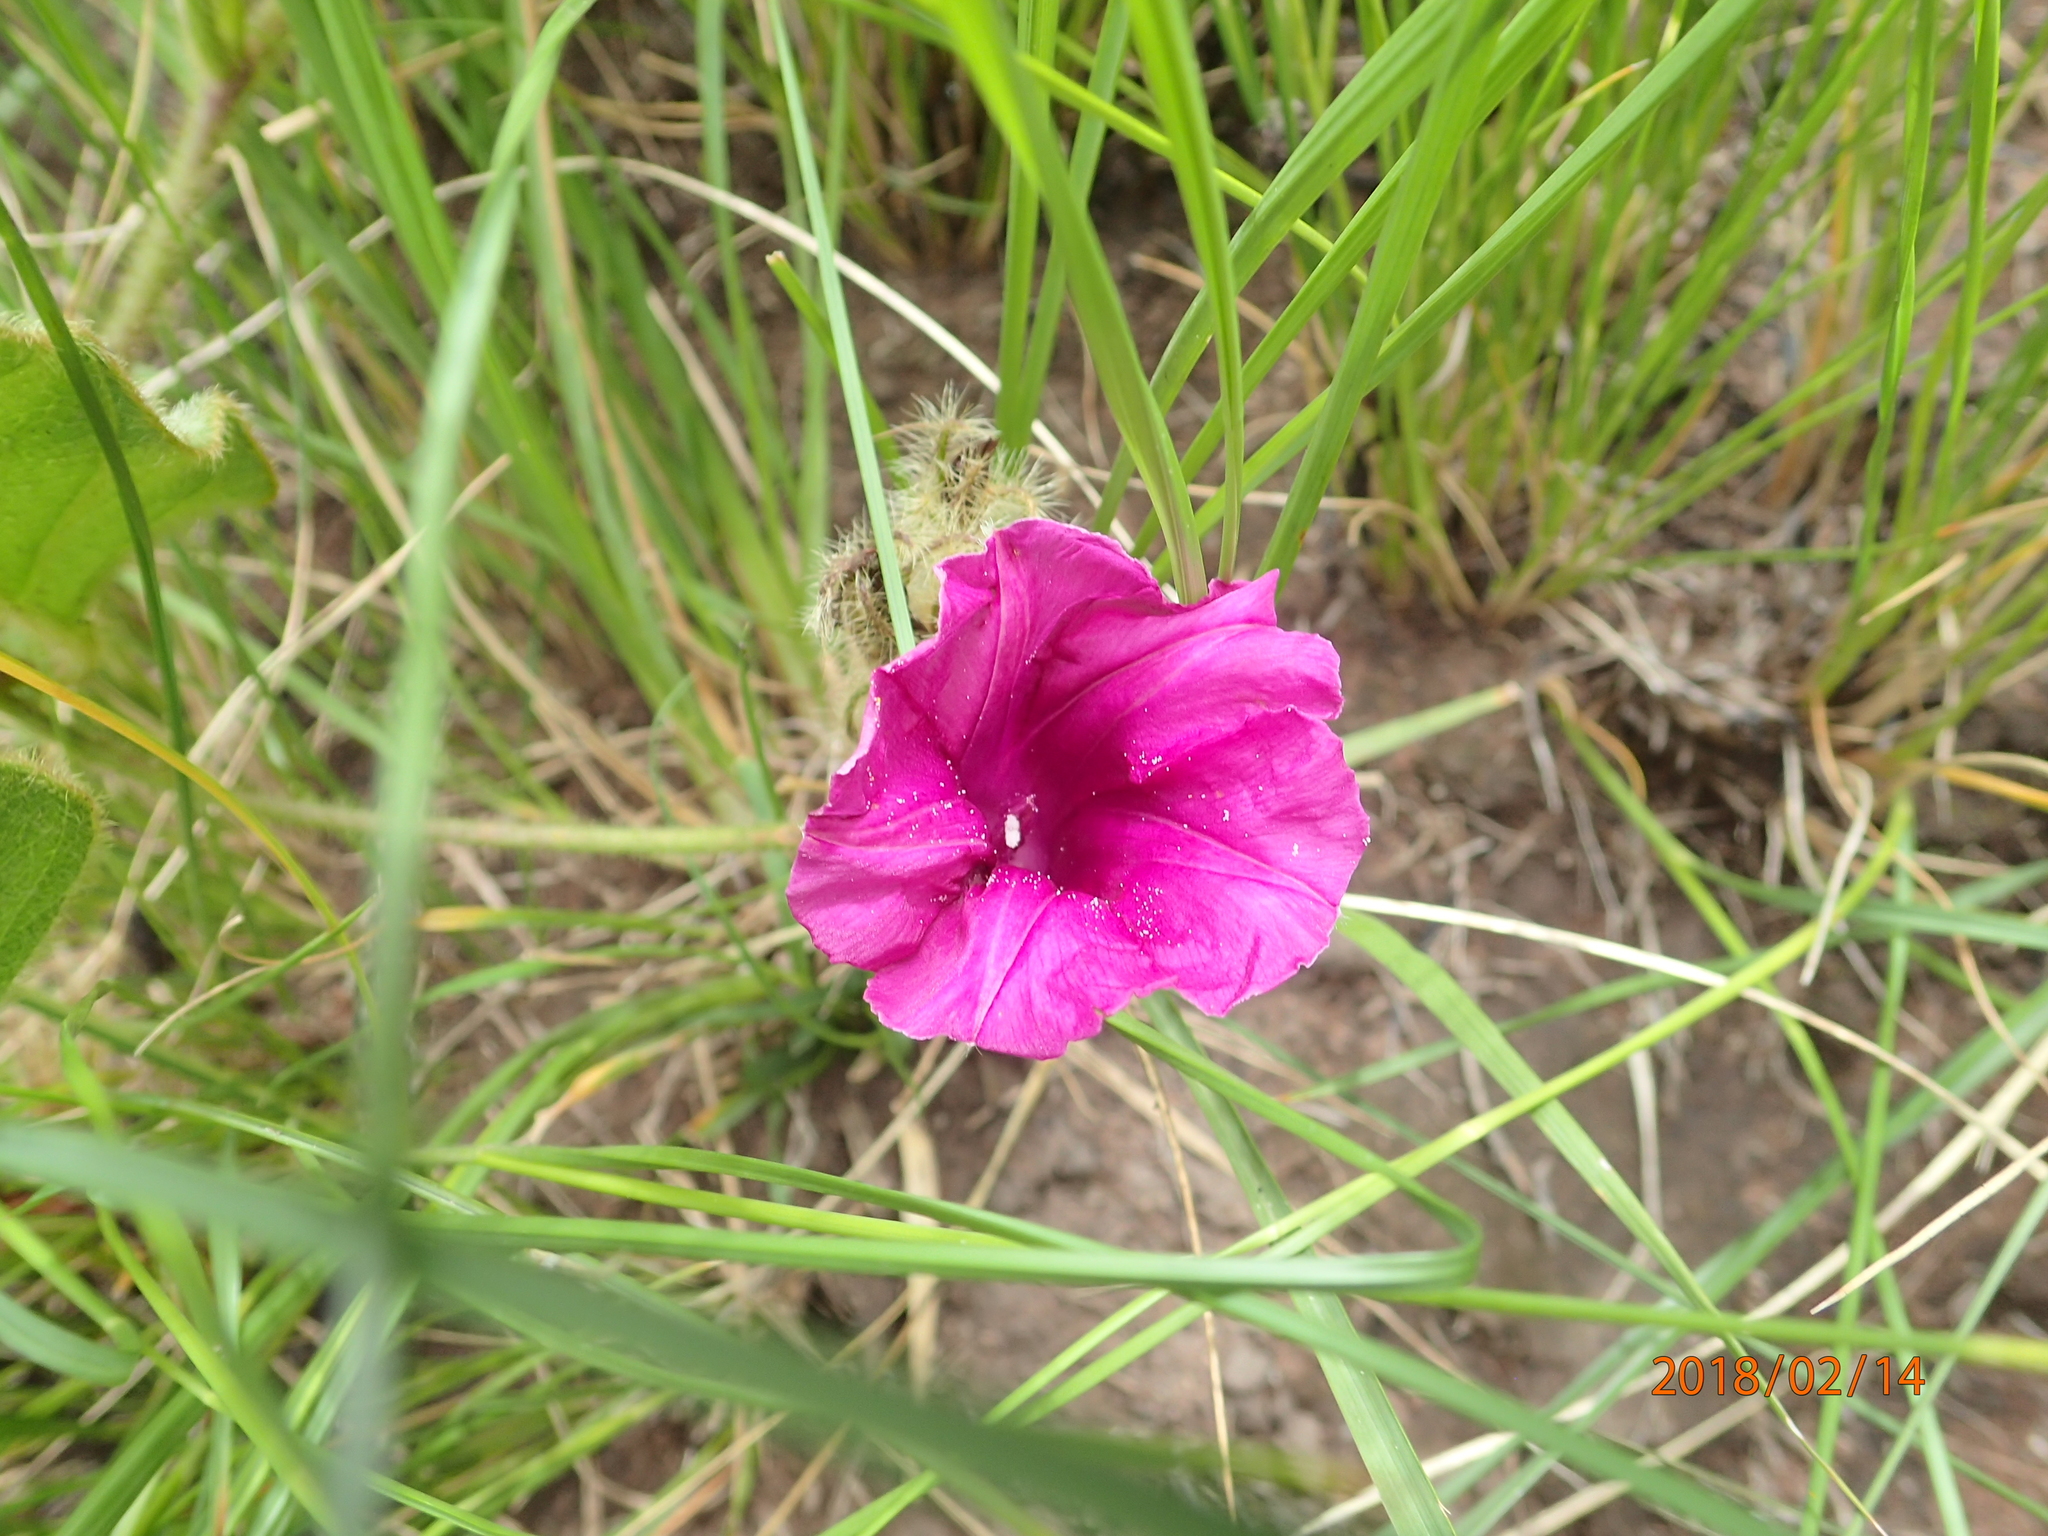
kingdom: Plantae
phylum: Tracheophyta
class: Magnoliopsida
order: Solanales
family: Convolvulaceae
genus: Ipomoea
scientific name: Ipomoea pellita
